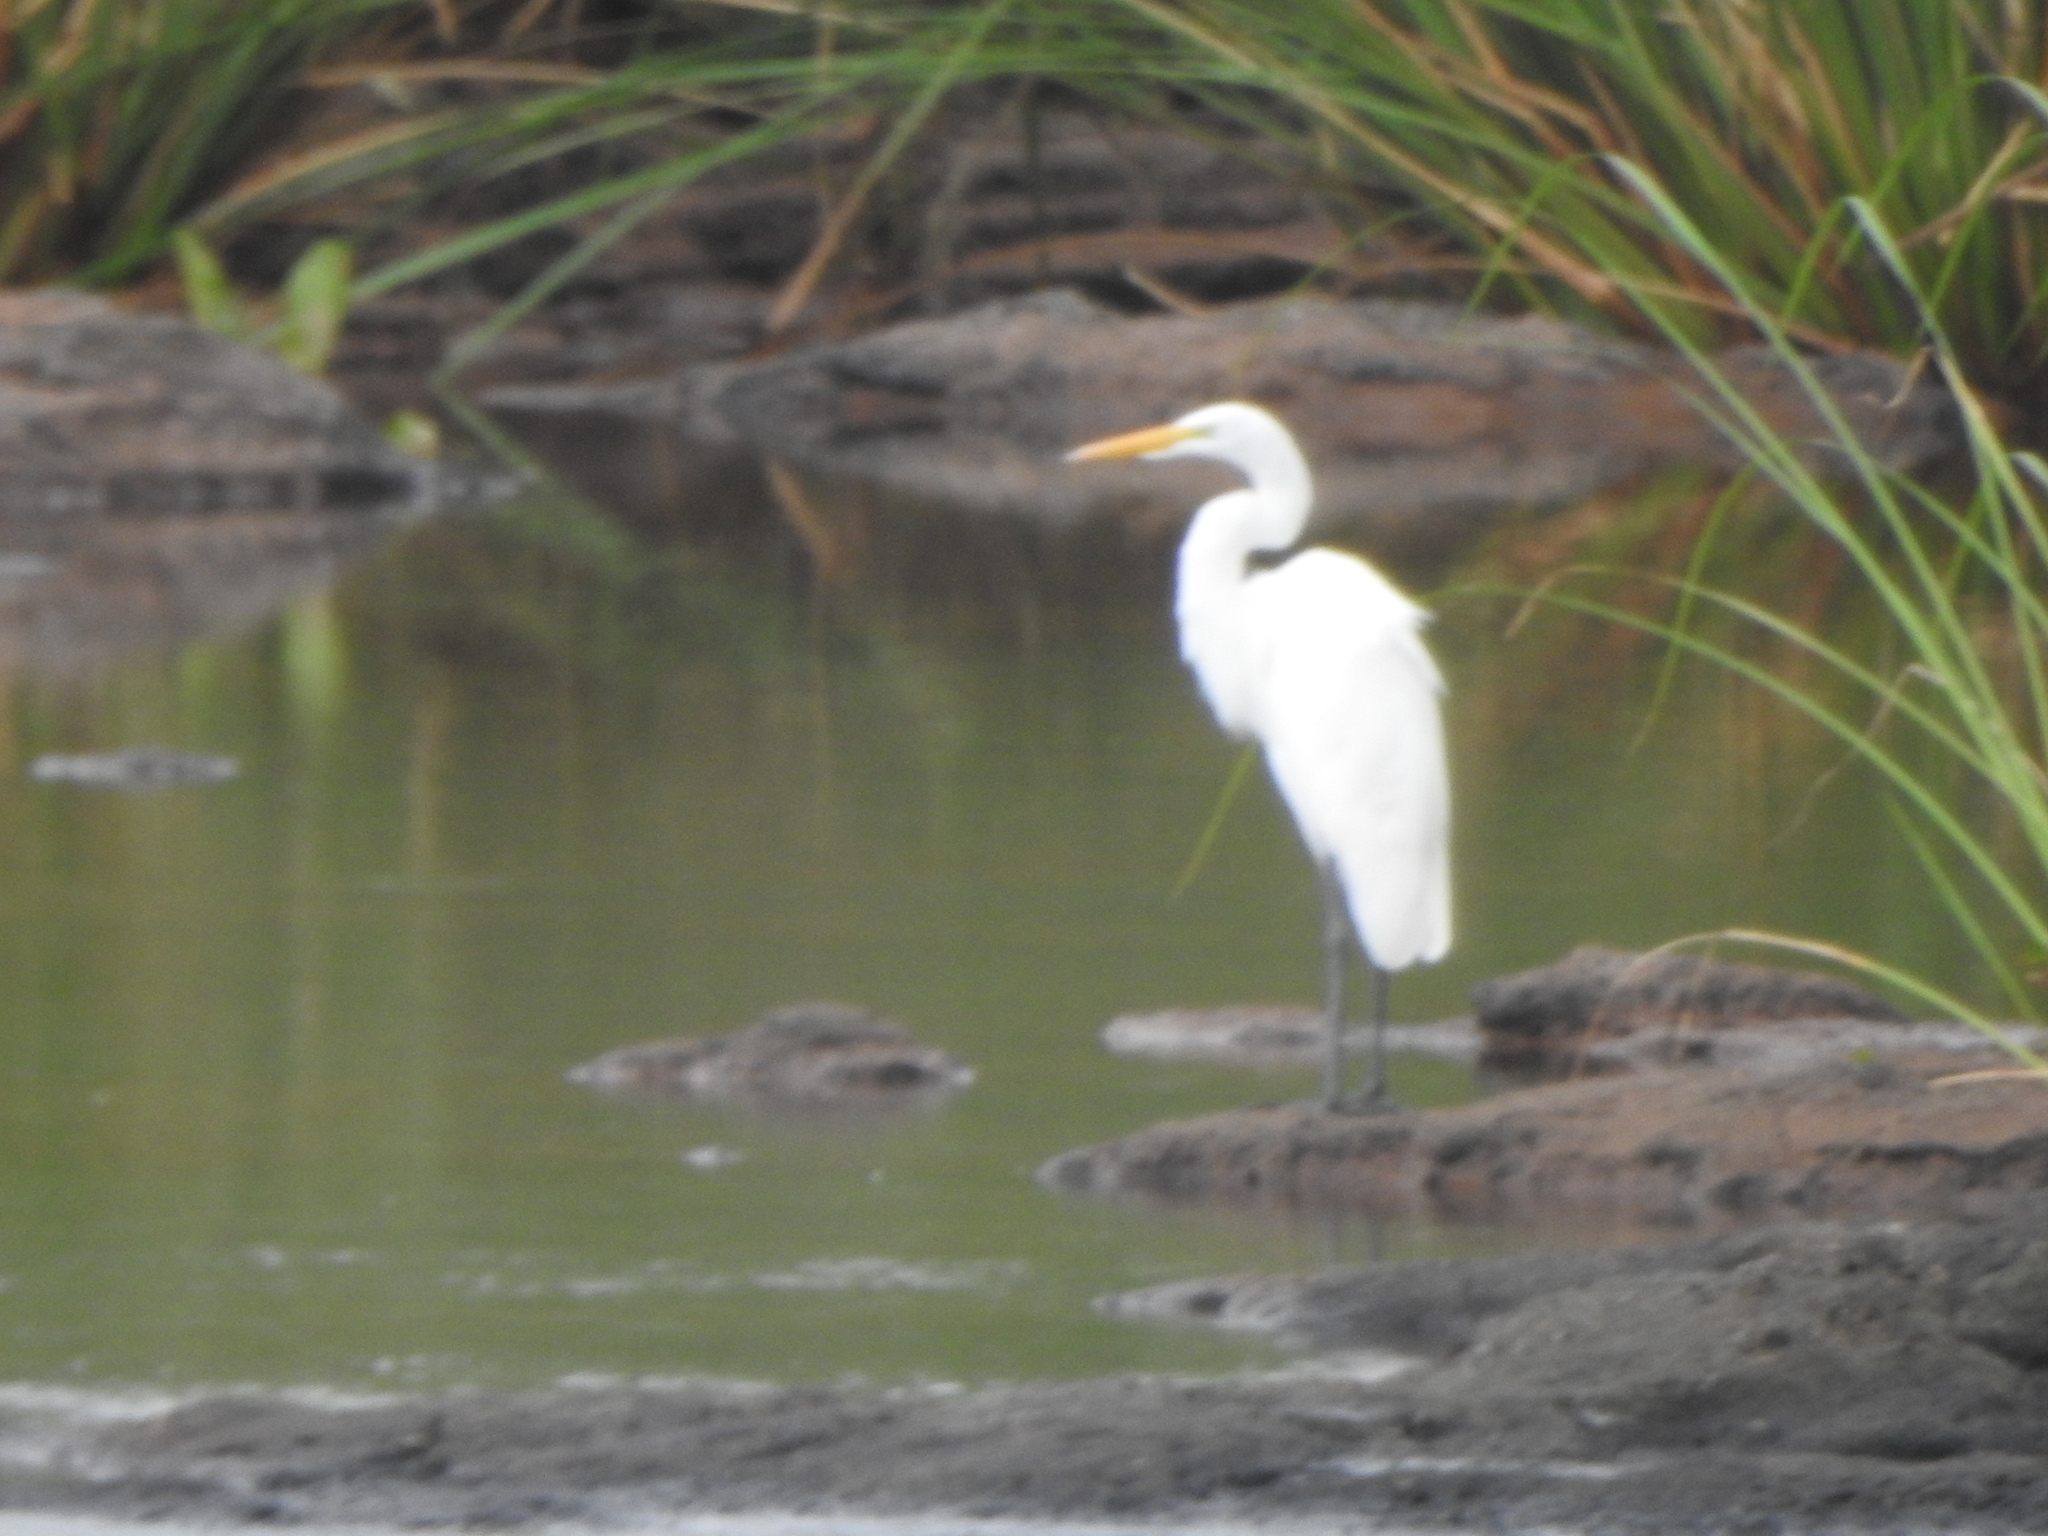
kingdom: Animalia
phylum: Chordata
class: Aves
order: Pelecaniformes
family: Ardeidae
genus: Ardea
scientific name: Ardea alba
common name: Great egret
